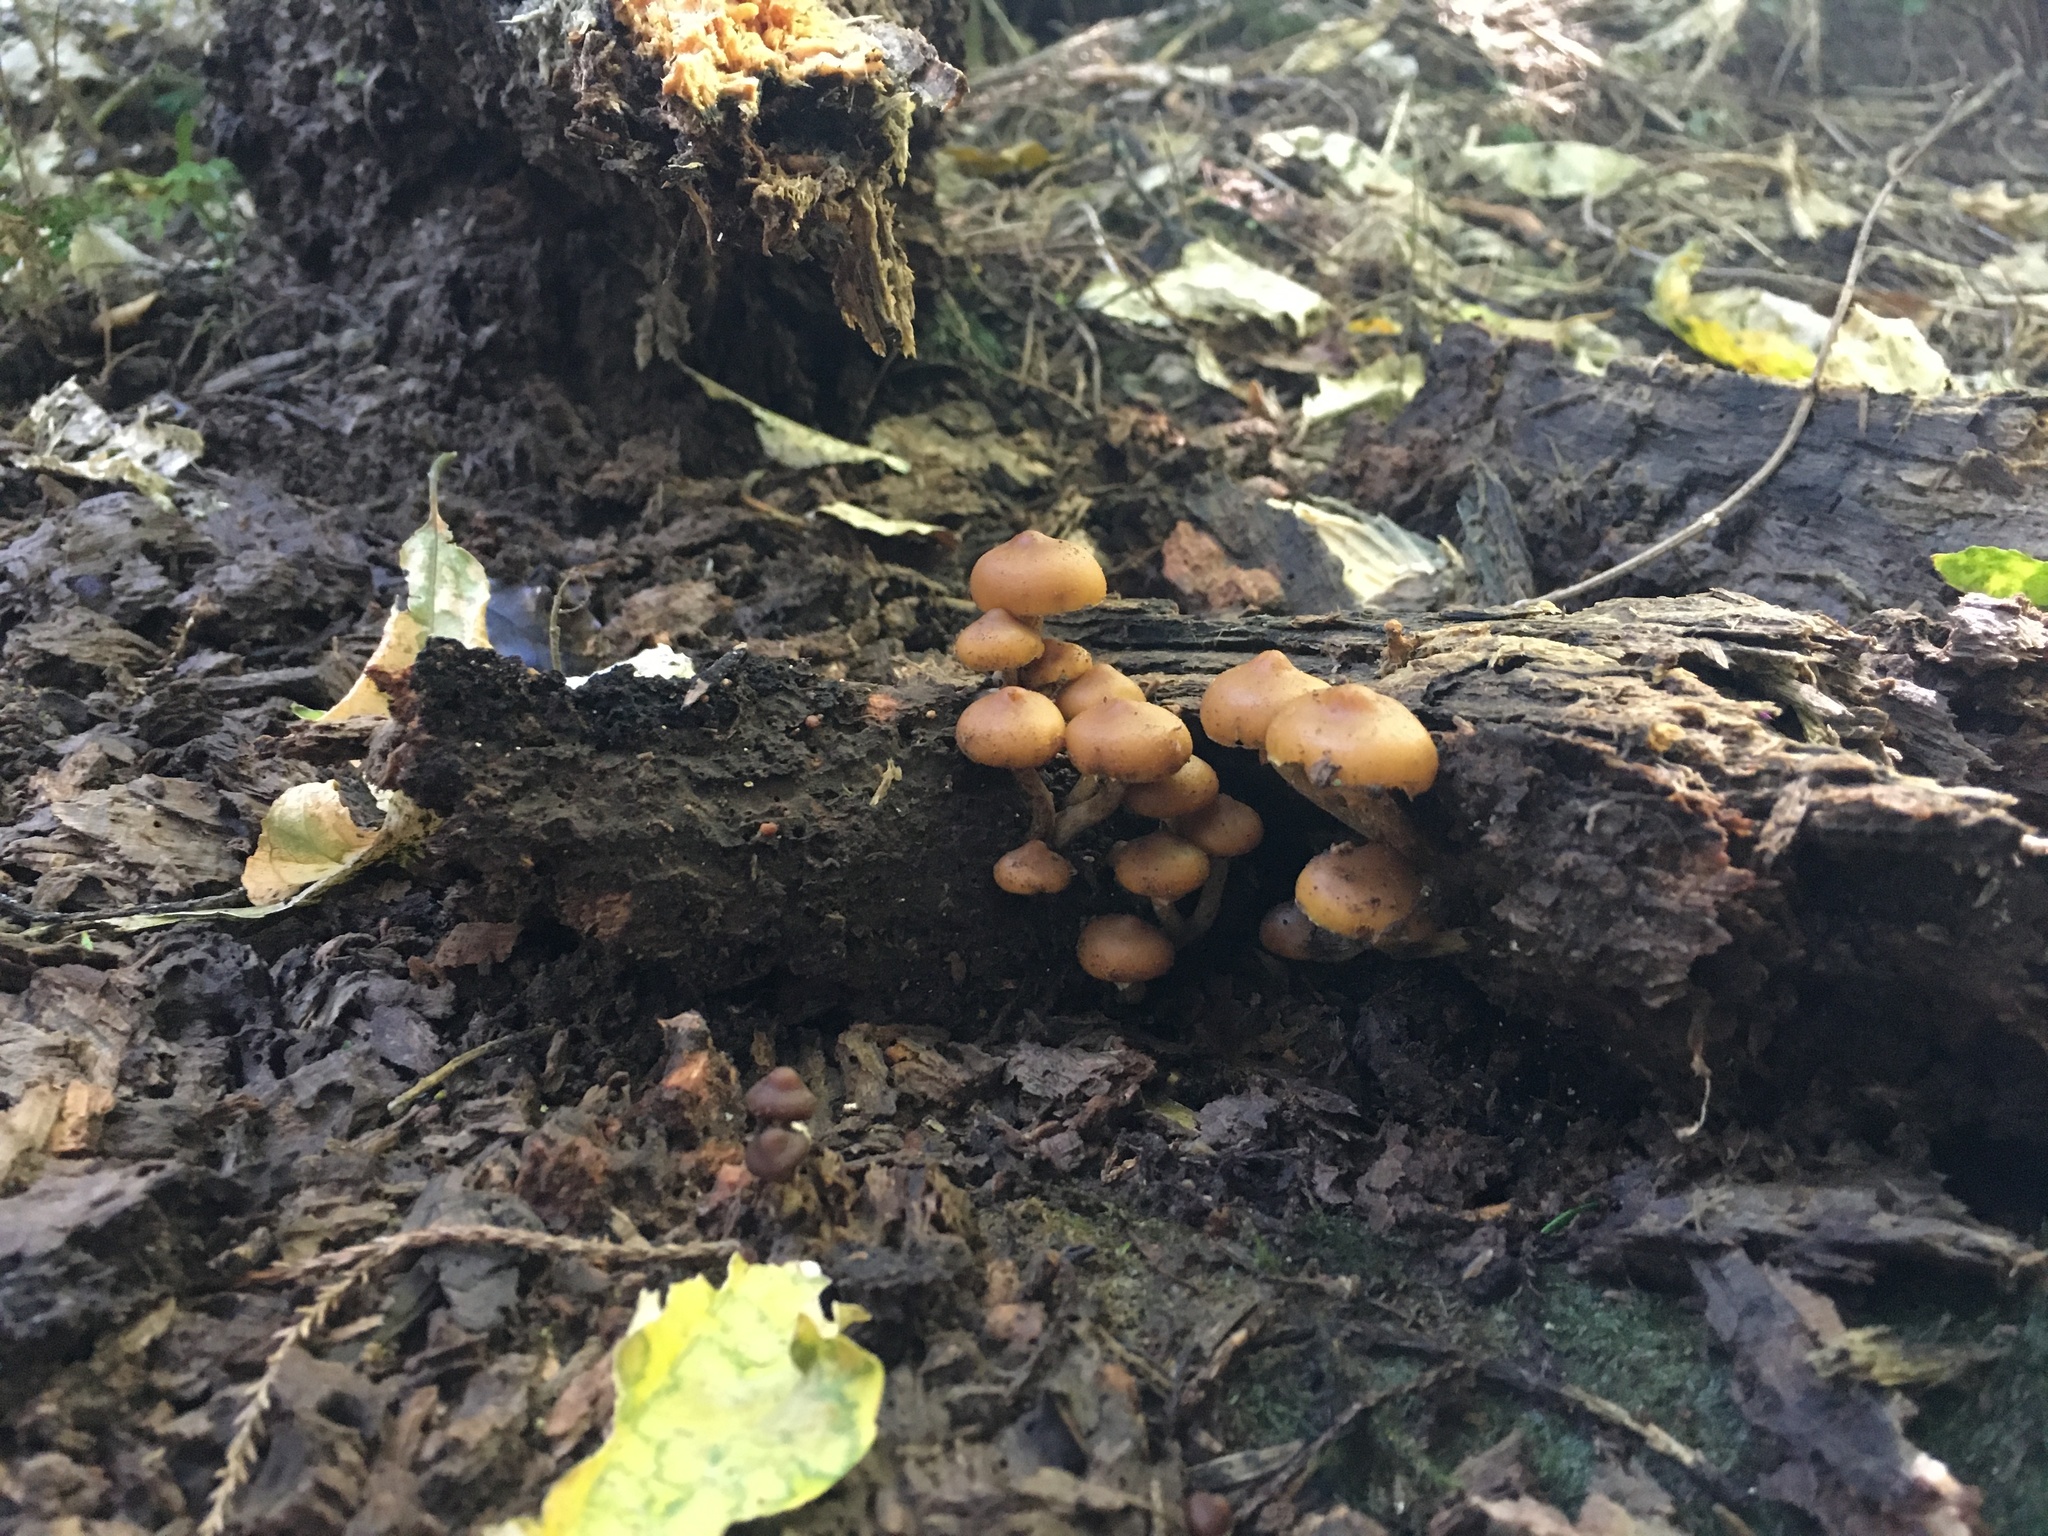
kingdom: Fungi
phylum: Basidiomycota
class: Agaricomycetes
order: Agaricales
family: Hymenogastraceae
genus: Galerina
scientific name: Galerina patagonica
